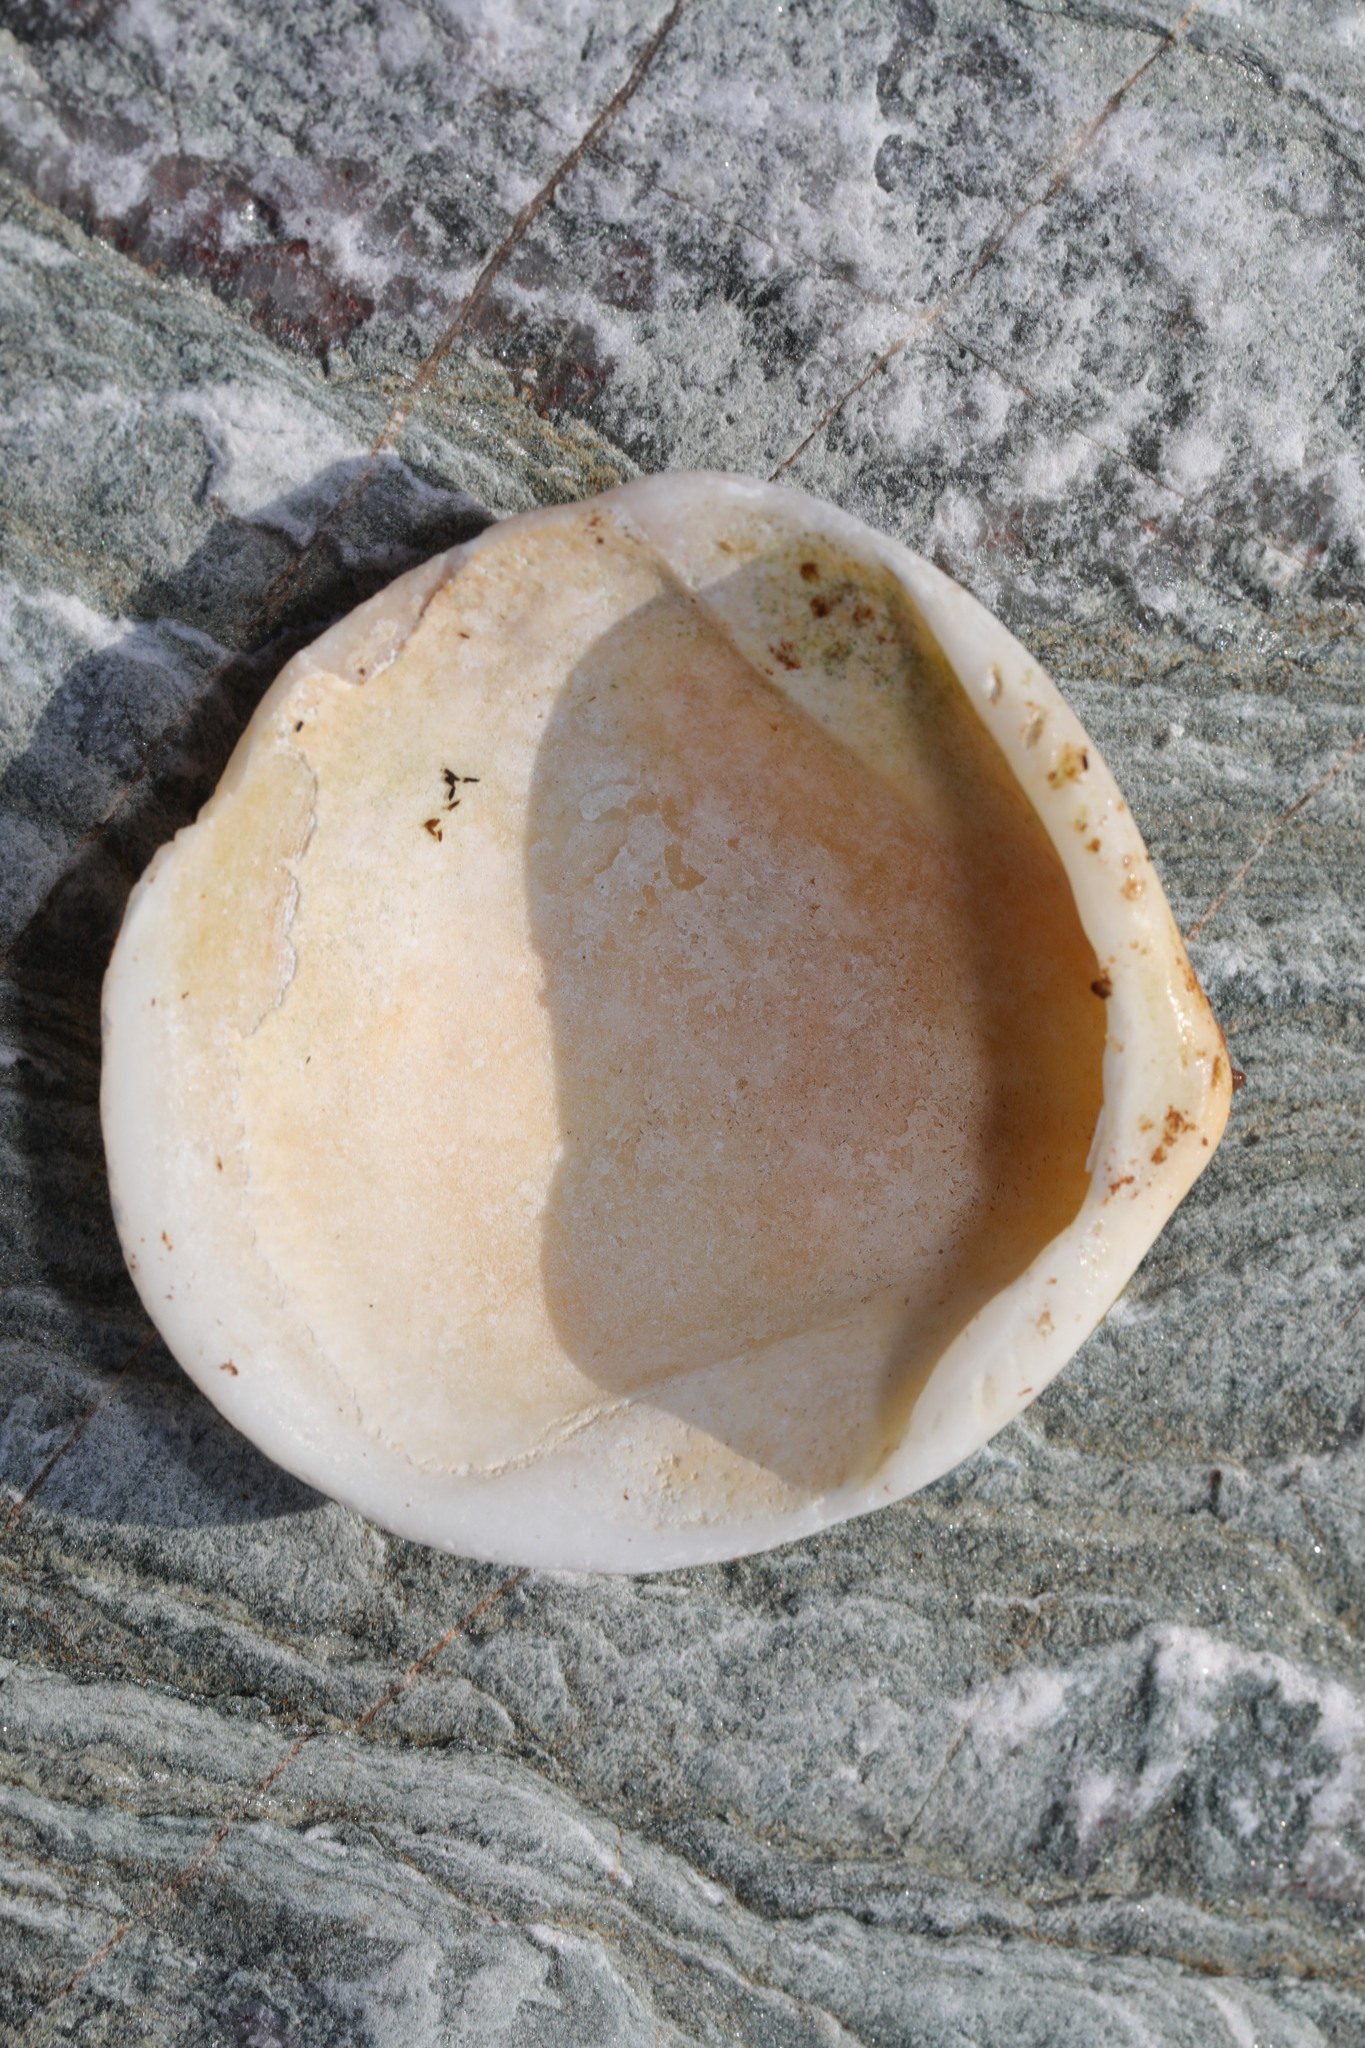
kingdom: Animalia
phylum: Mollusca
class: Bivalvia
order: Arcida
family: Glycymerididae
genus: Glycymeris
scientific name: Glycymeris glycymeris
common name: Dog-cockle
